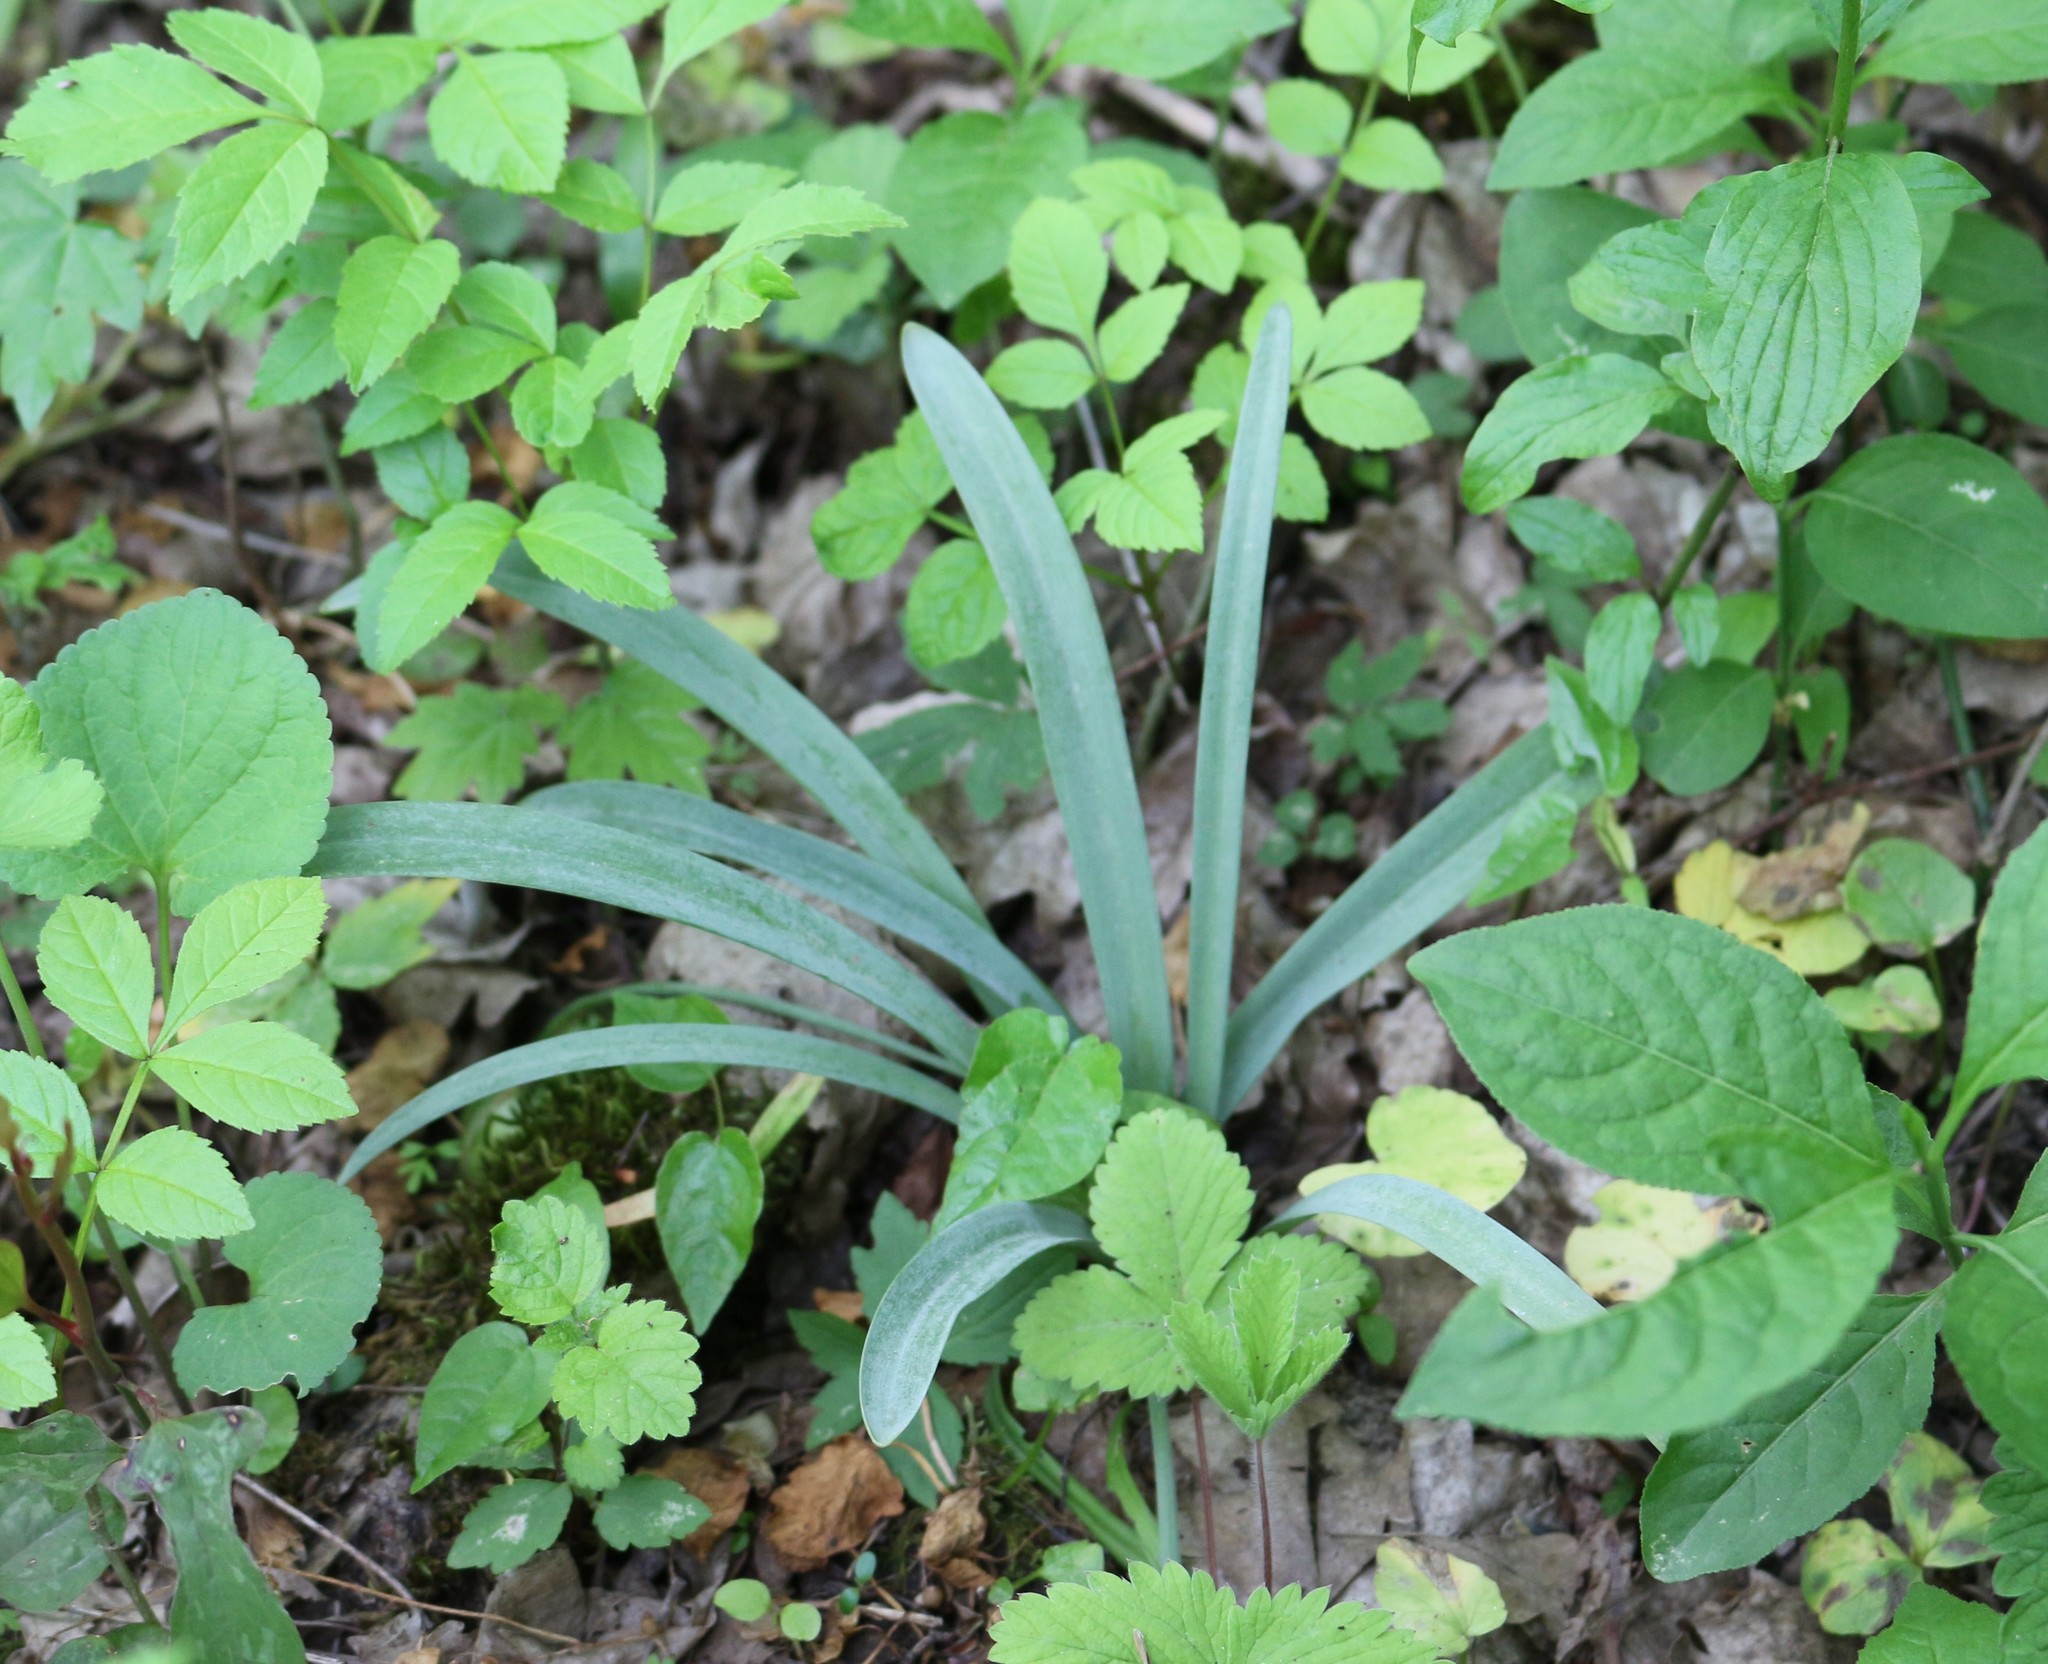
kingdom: Plantae
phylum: Tracheophyta
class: Liliopsida
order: Asparagales
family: Amaryllidaceae
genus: Galanthus
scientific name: Galanthus alpinus
